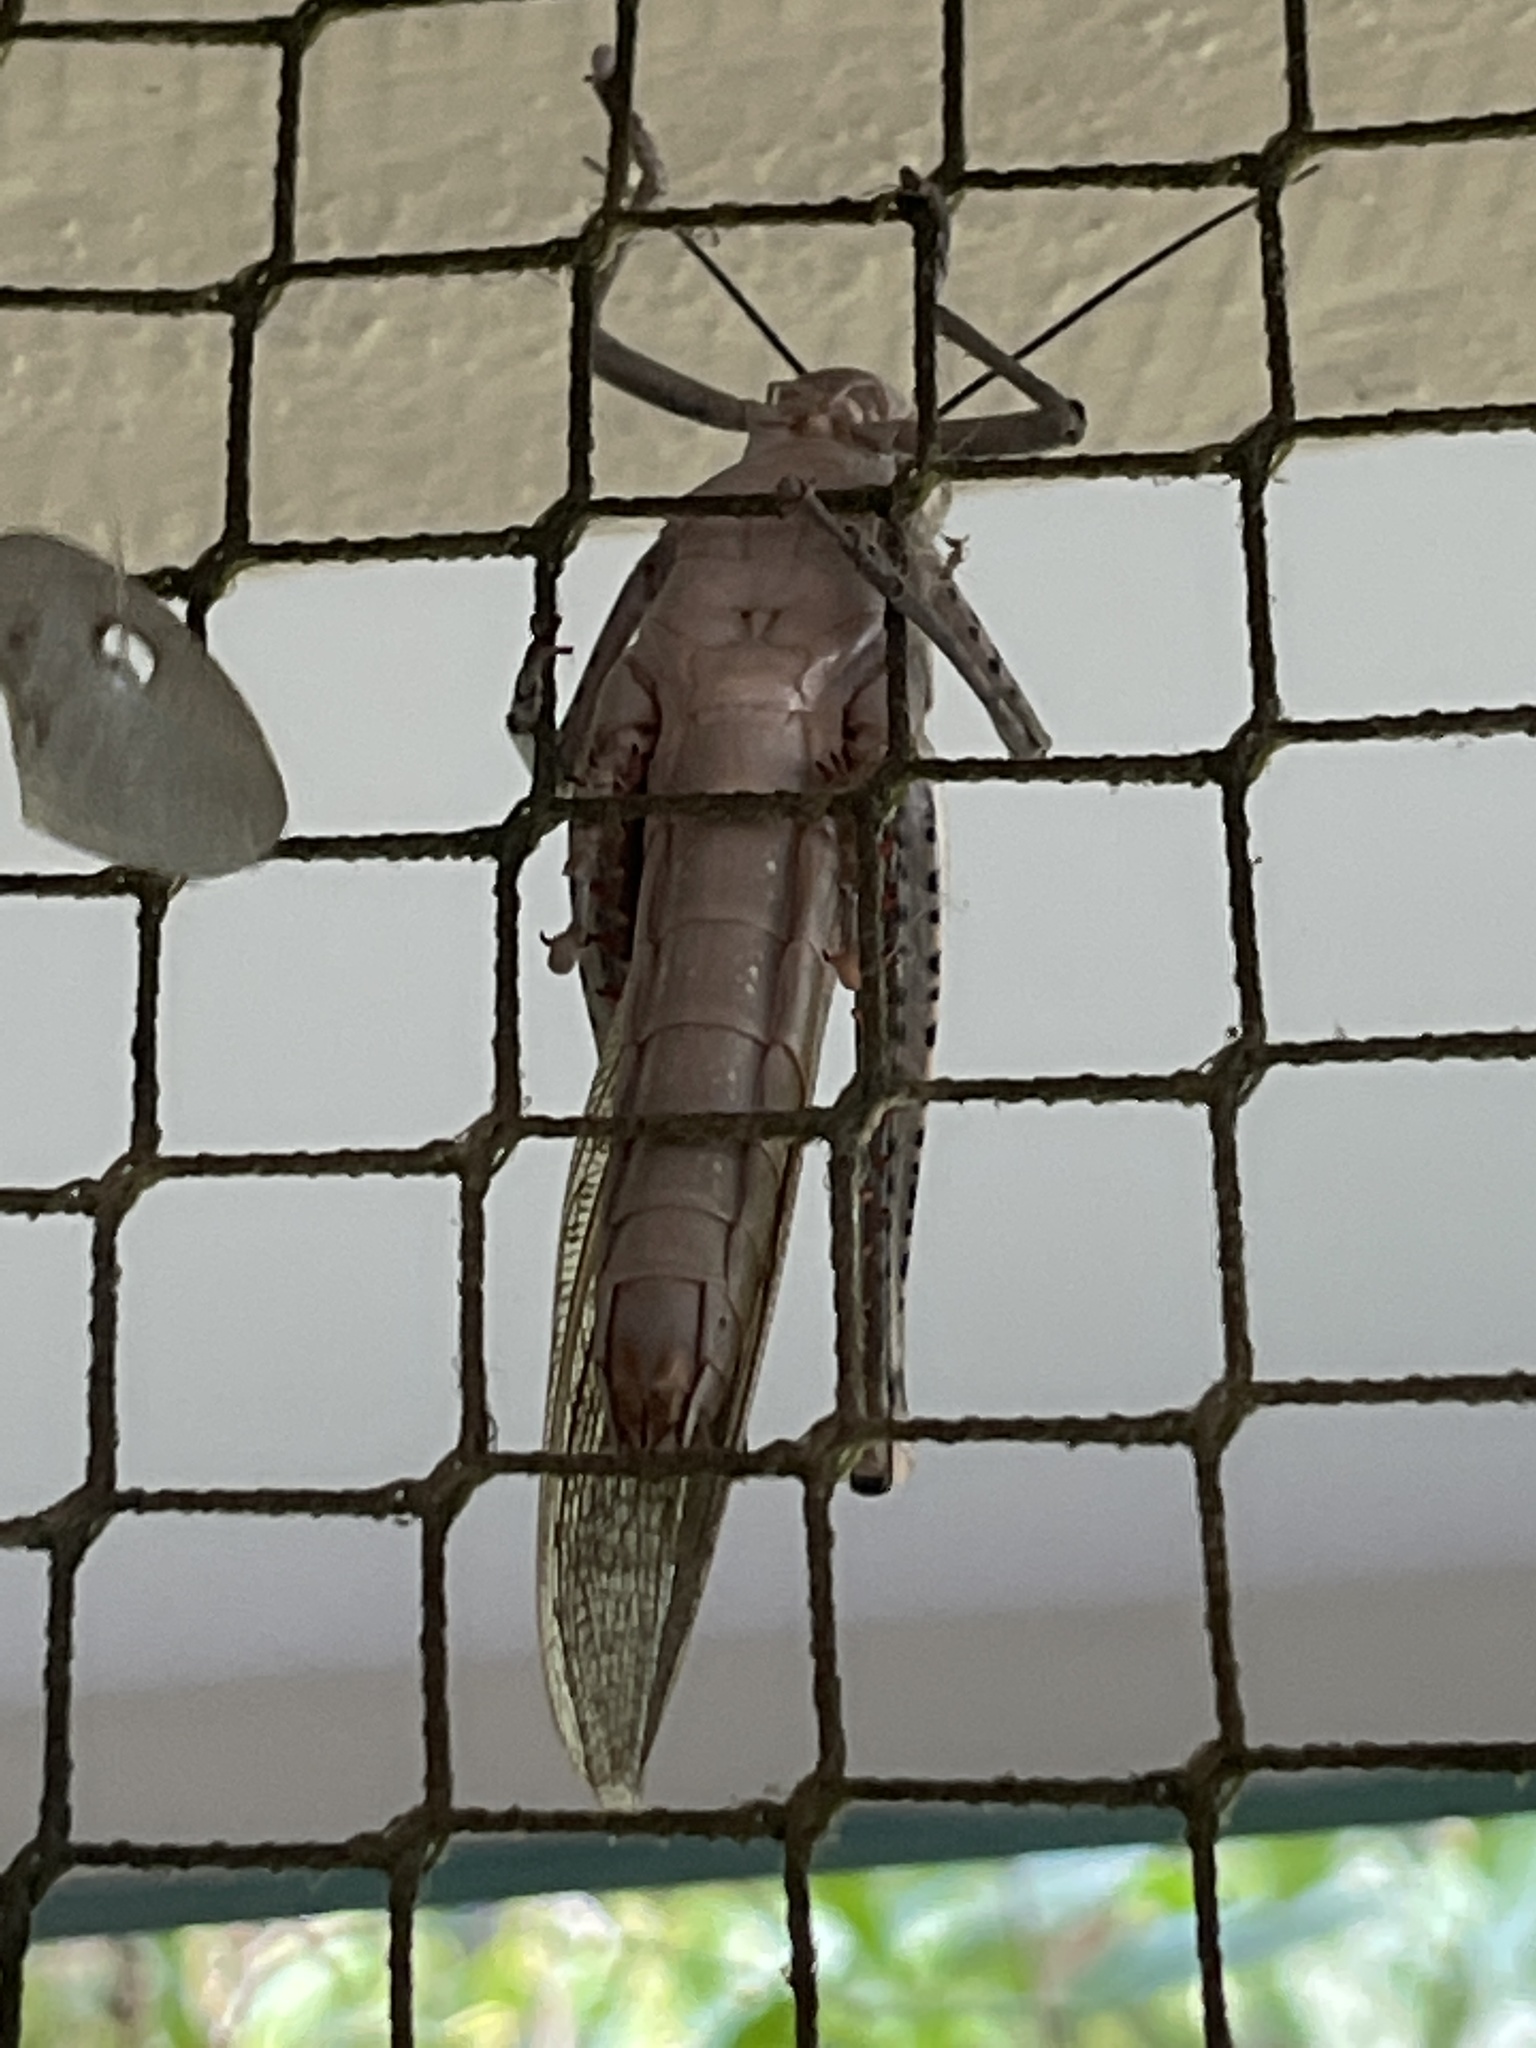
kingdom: Animalia
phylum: Arthropoda
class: Insecta
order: Orthoptera
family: Acrididae
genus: Valanga
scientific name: Valanga irregularis
